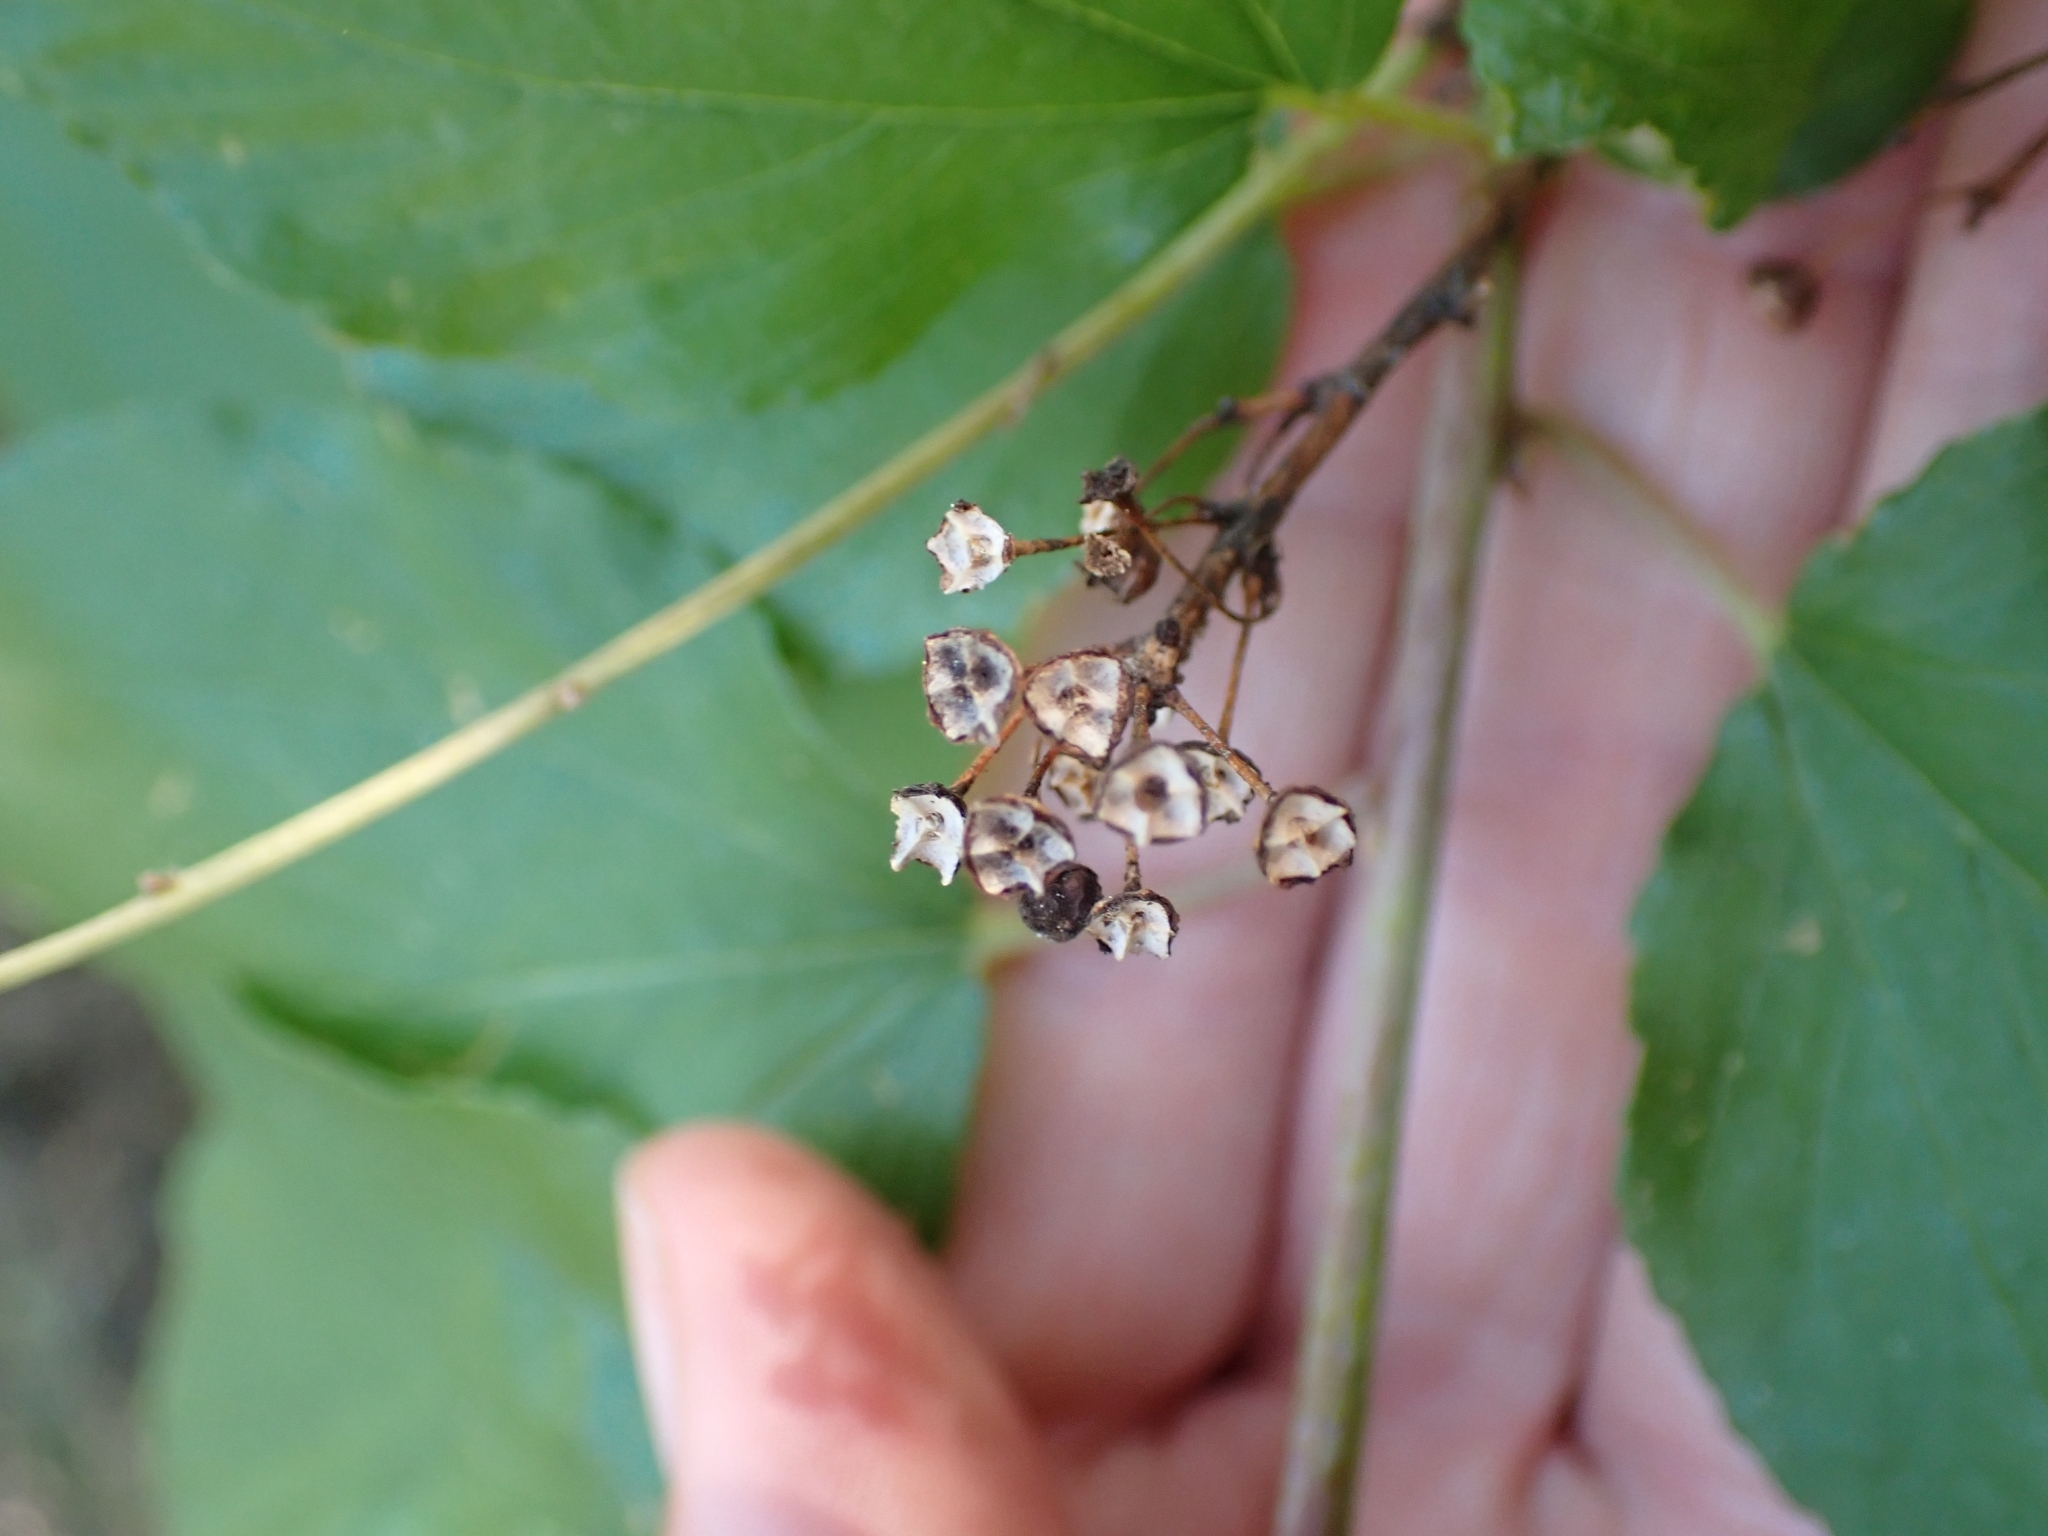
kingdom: Plantae
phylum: Tracheophyta
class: Magnoliopsida
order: Rosales
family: Rhamnaceae
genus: Ceanothus
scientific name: Ceanothus sanguineus
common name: Teatree
